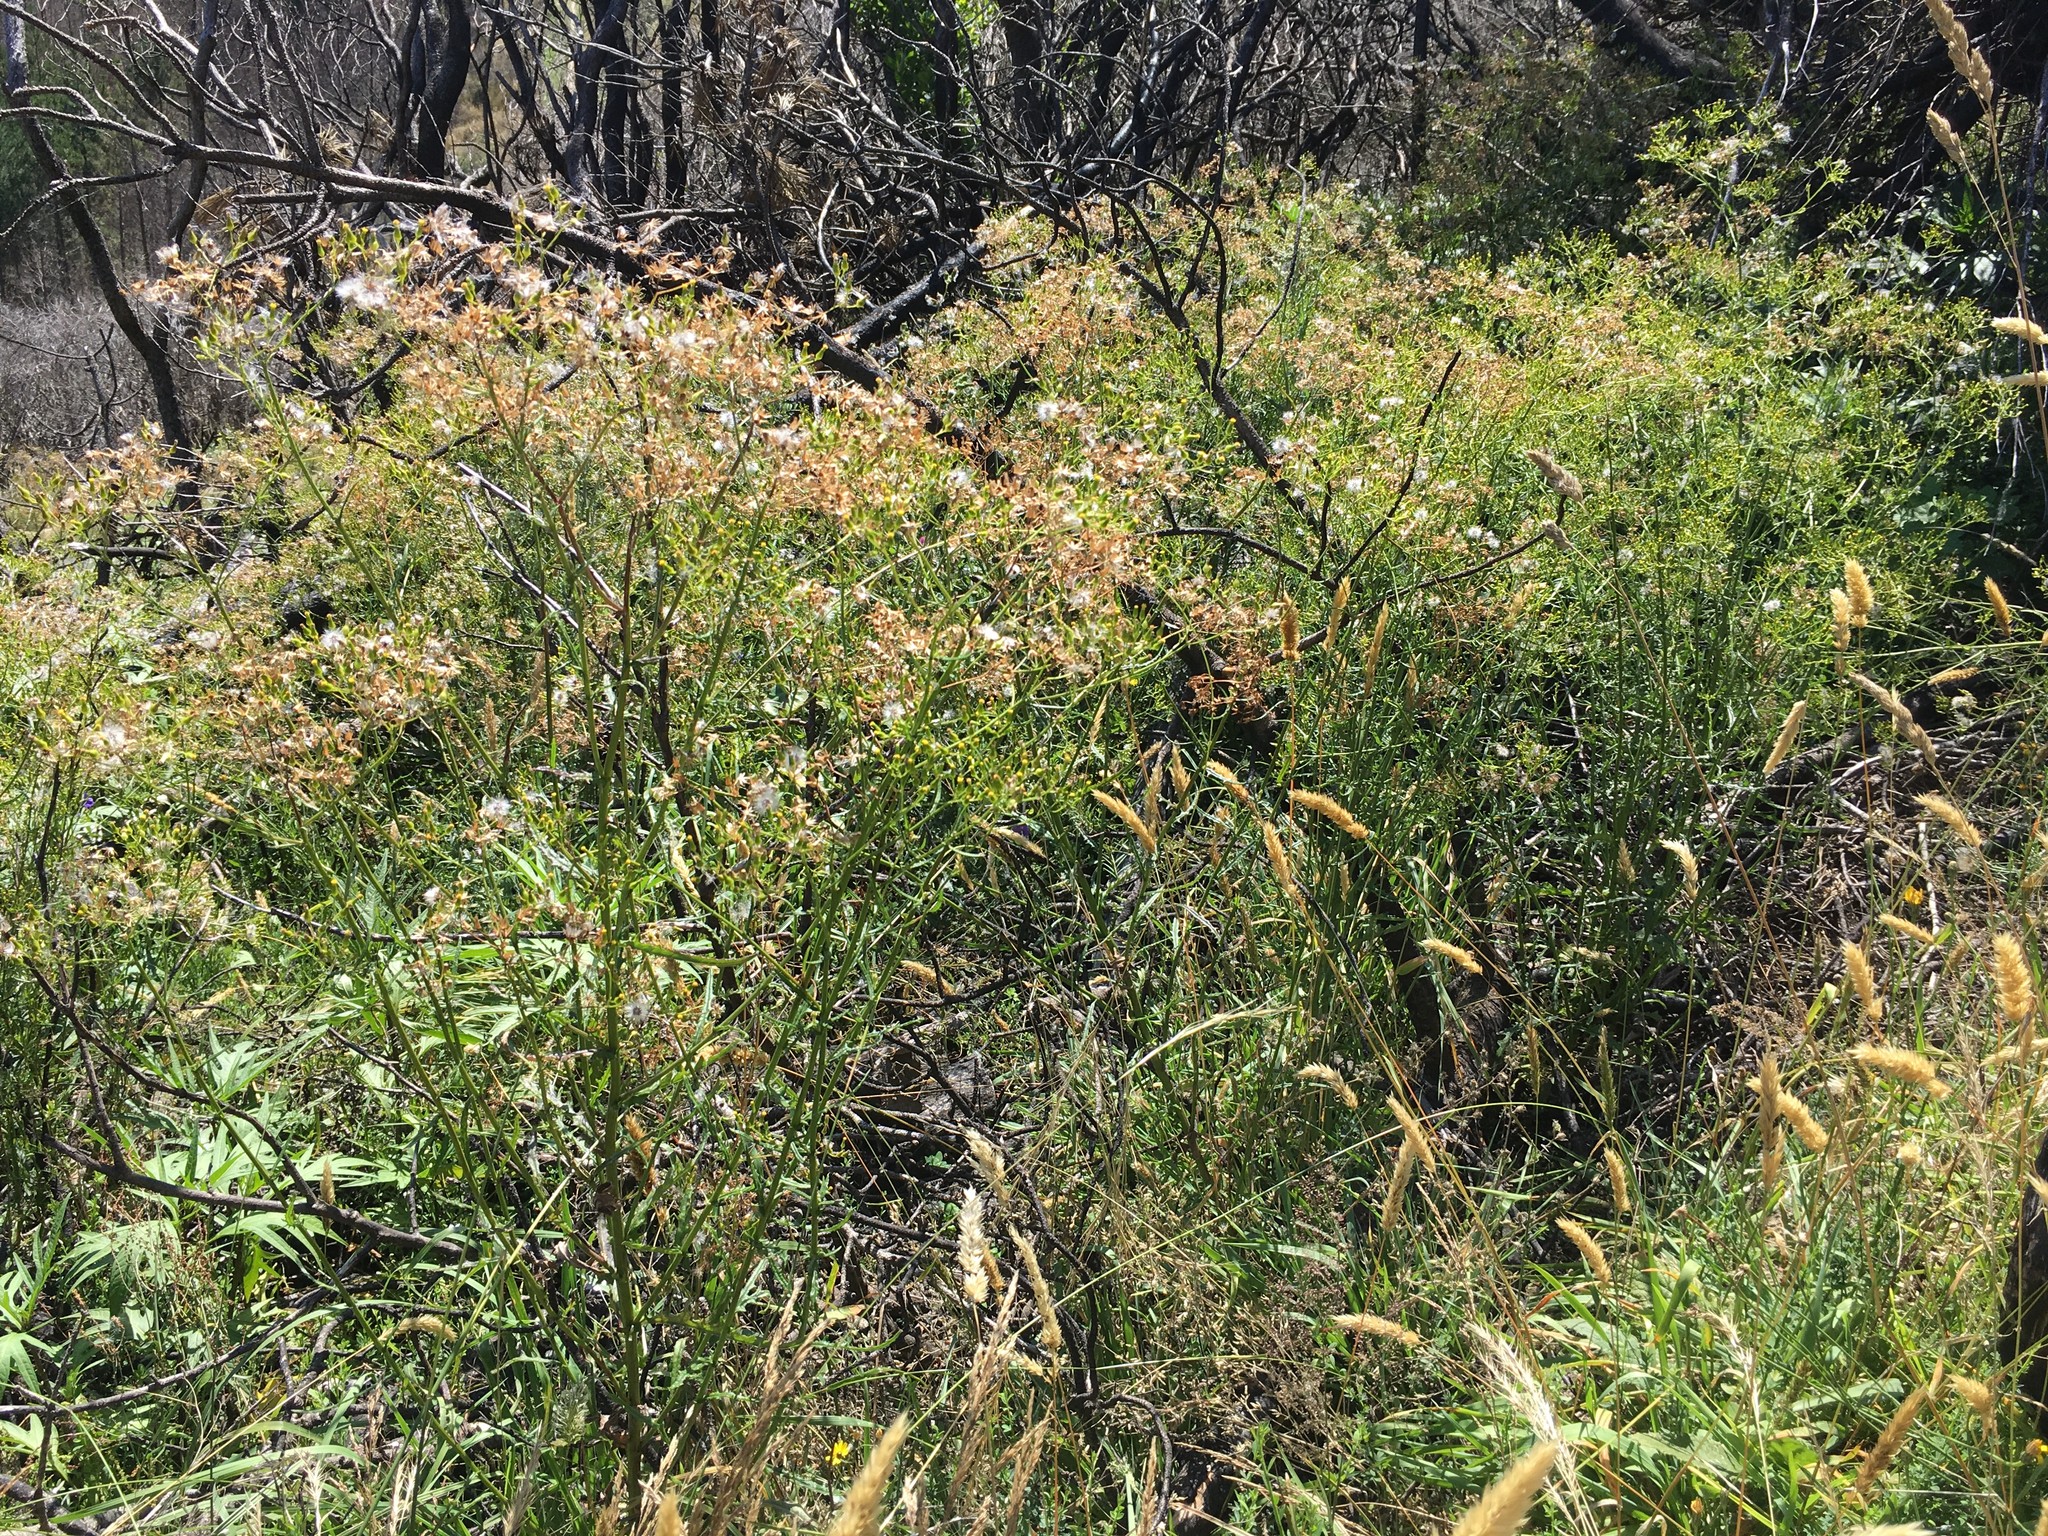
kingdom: Plantae
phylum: Tracheophyta
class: Magnoliopsida
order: Asterales
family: Asteraceae
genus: Senecio
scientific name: Senecio hispidulus
